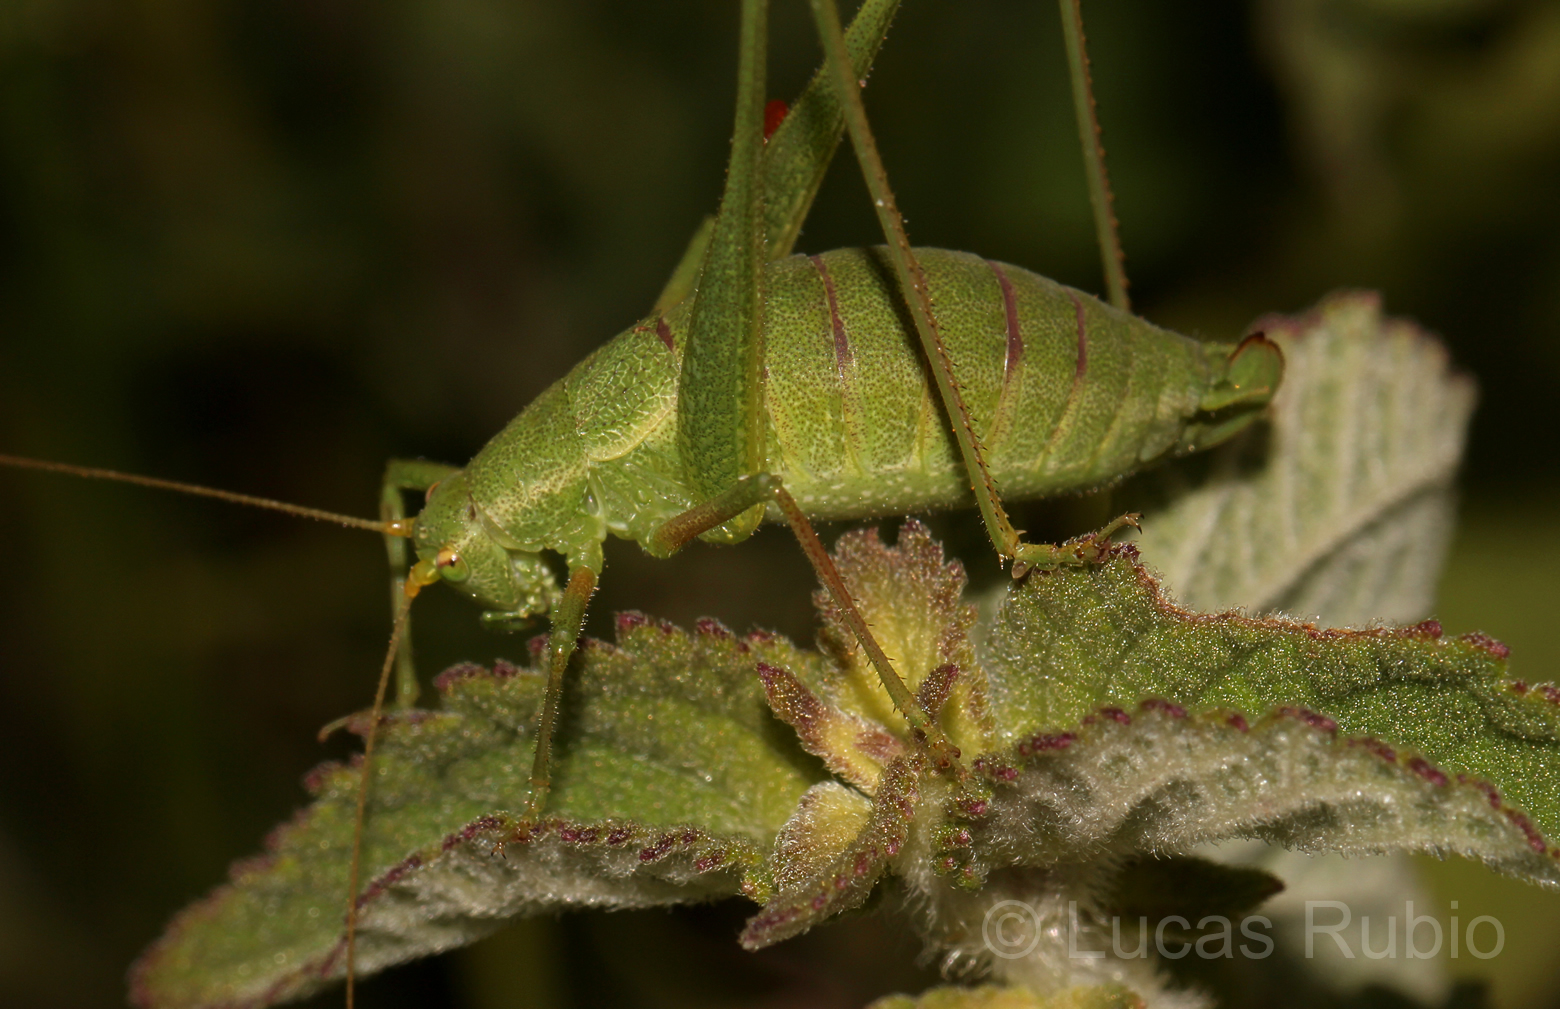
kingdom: Animalia
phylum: Arthropoda
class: Insecta
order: Orthoptera
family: Tettigoniidae
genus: Anisophya
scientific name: Anisophya punctinervis
